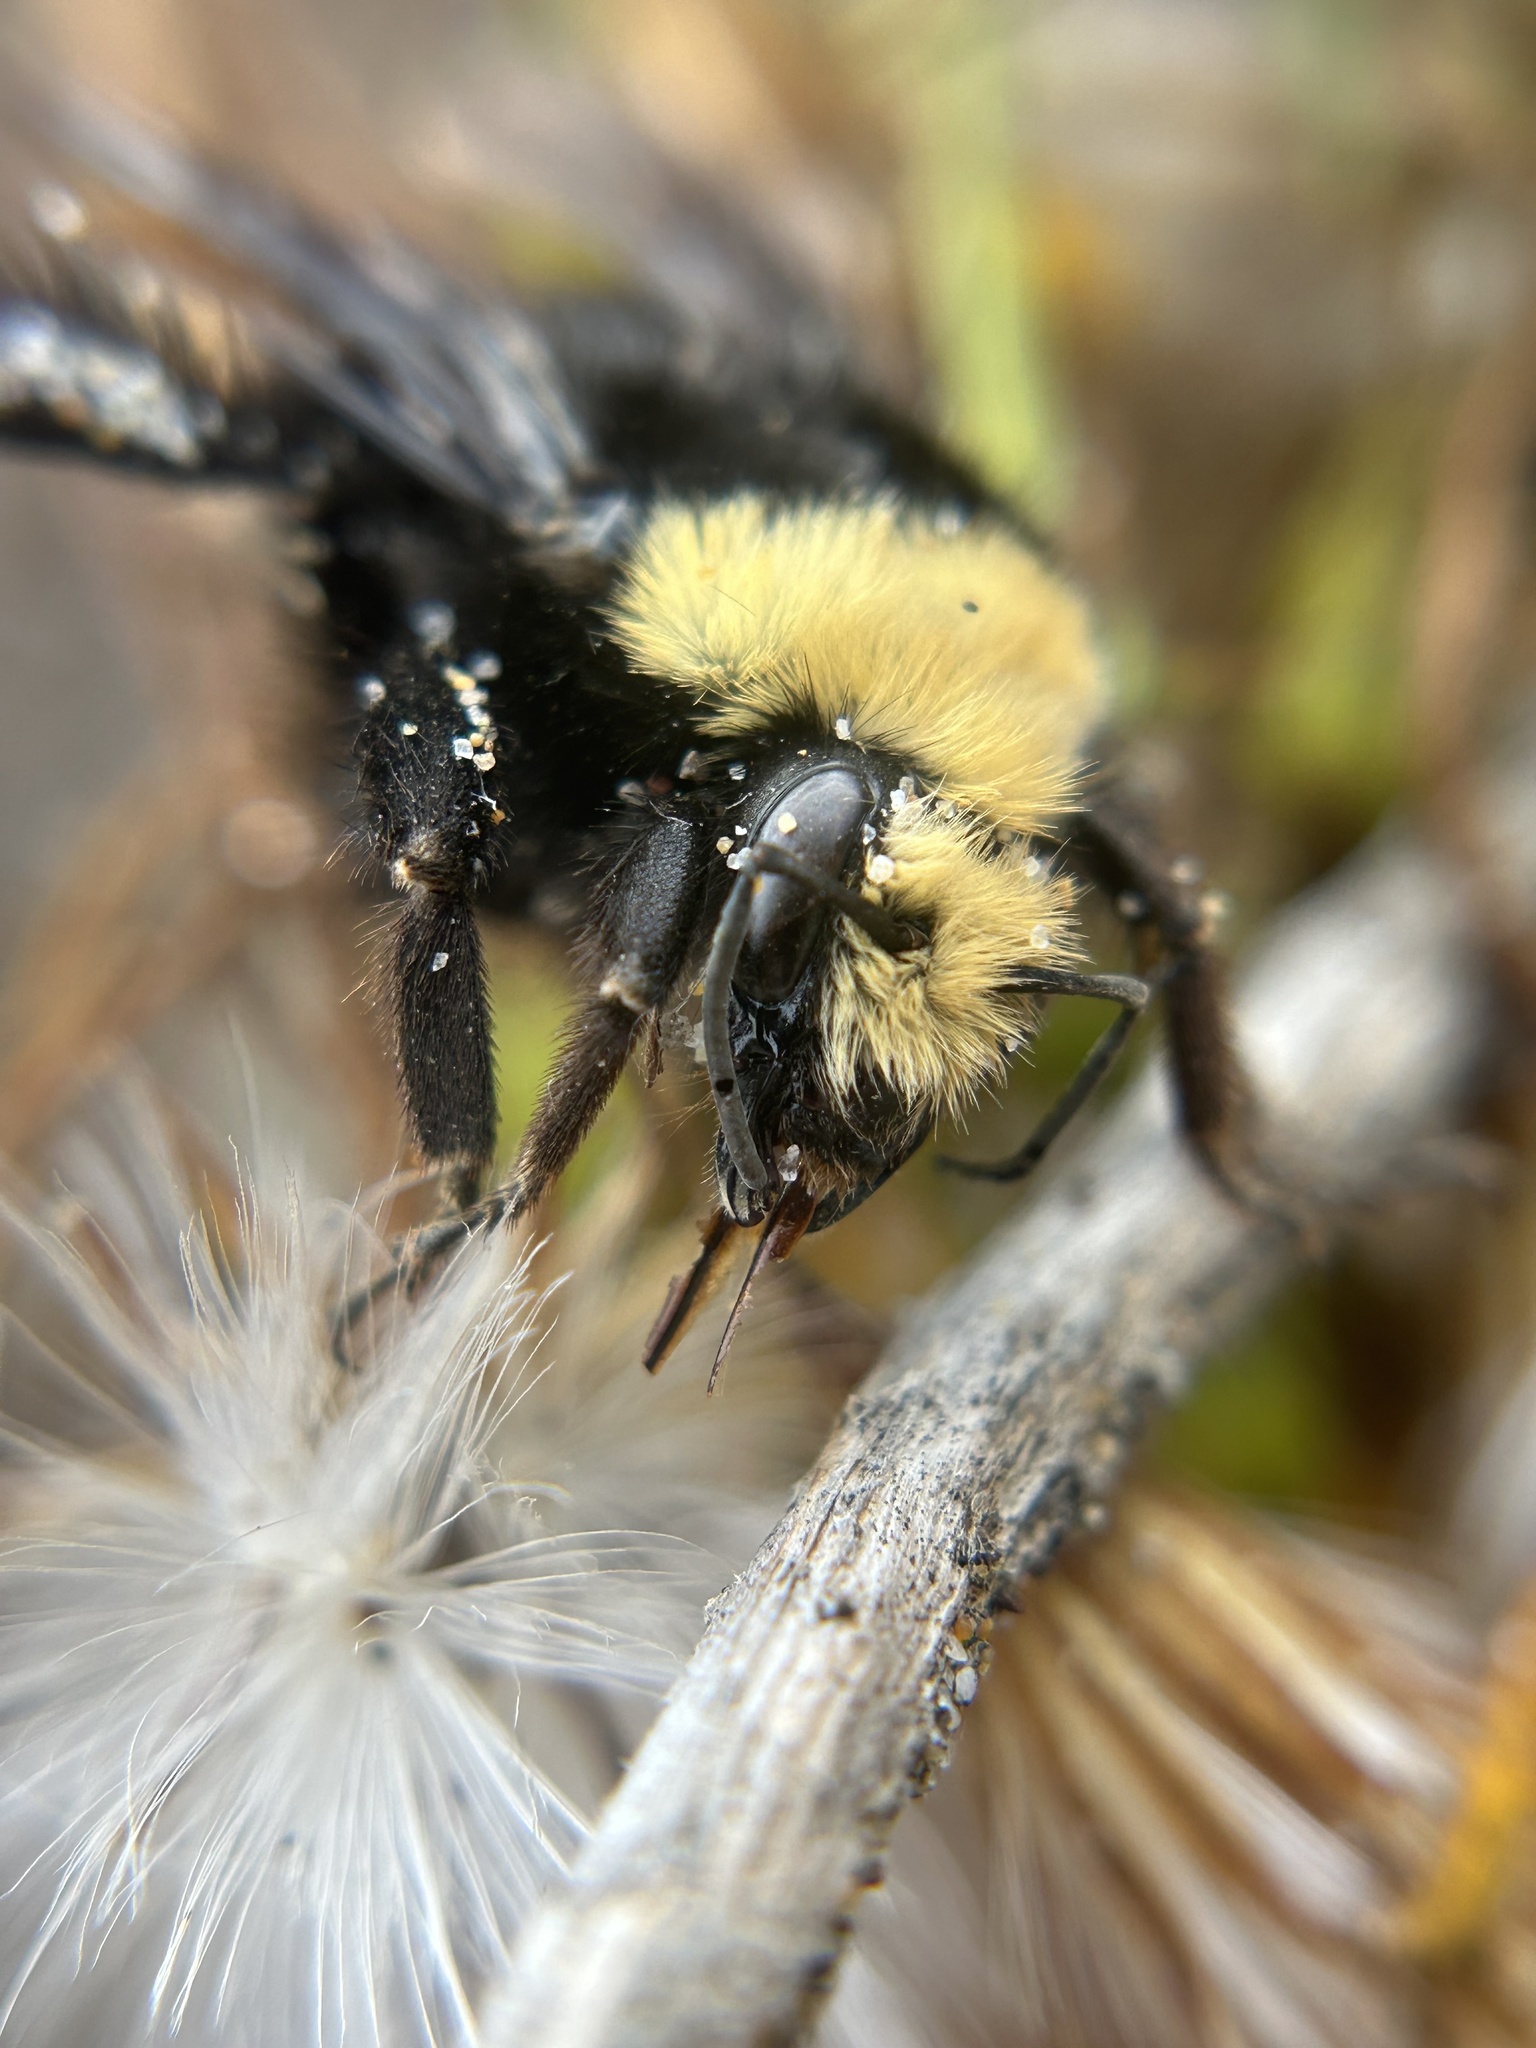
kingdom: Animalia
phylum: Arthropoda
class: Insecta
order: Hymenoptera
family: Apidae
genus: Bombus
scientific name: Bombus vosnesenskii
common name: Vosnesensky bumble bee
